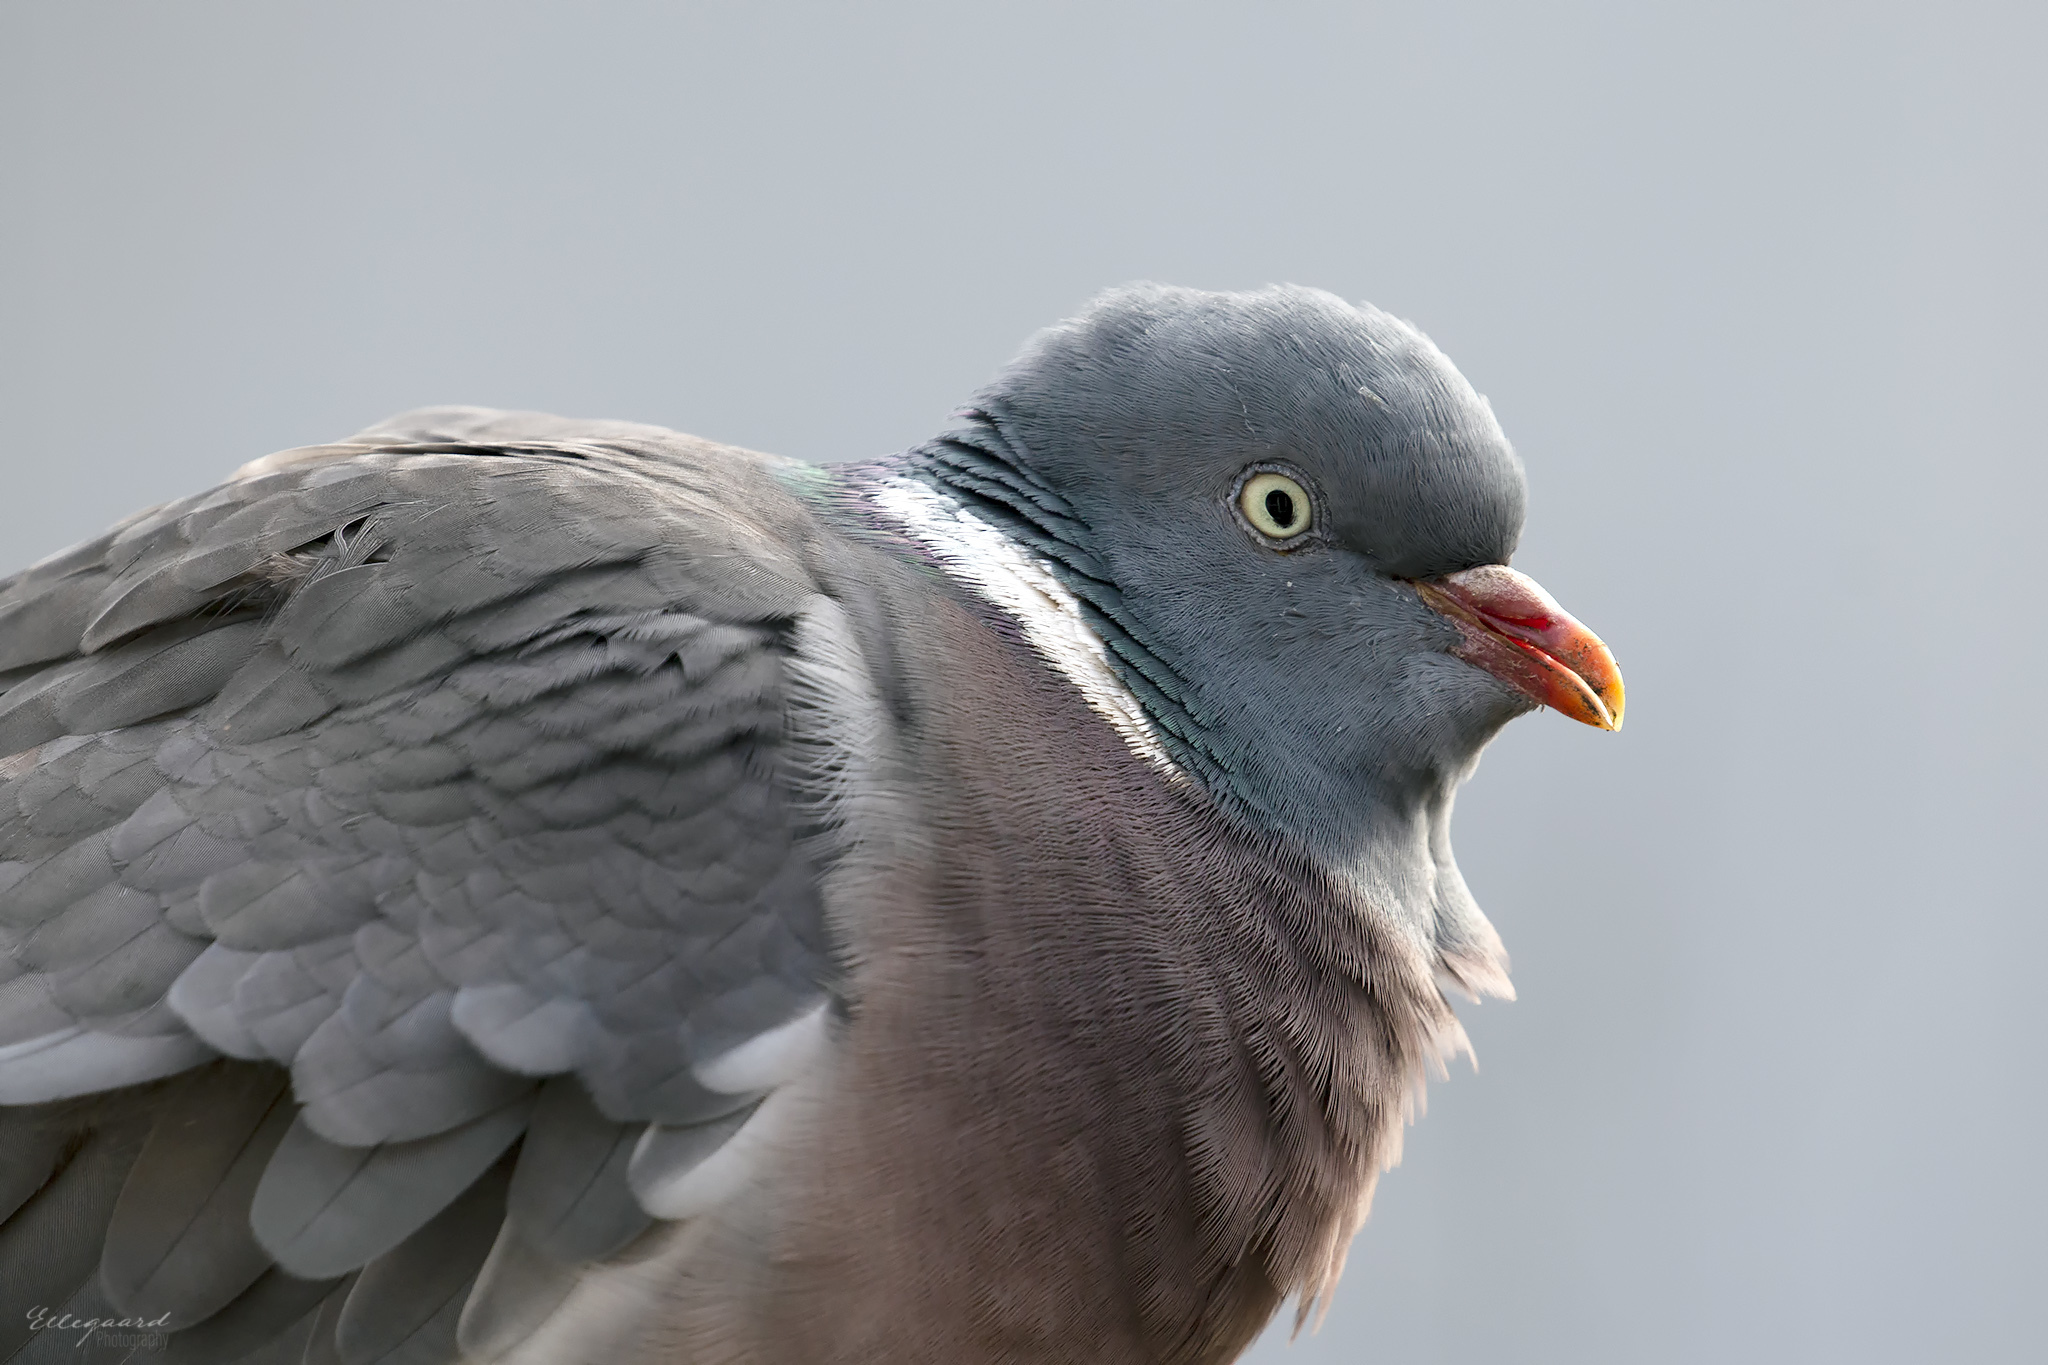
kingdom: Animalia
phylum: Chordata
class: Aves
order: Columbiformes
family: Columbidae
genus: Columba
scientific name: Columba palumbus
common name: Common wood pigeon
